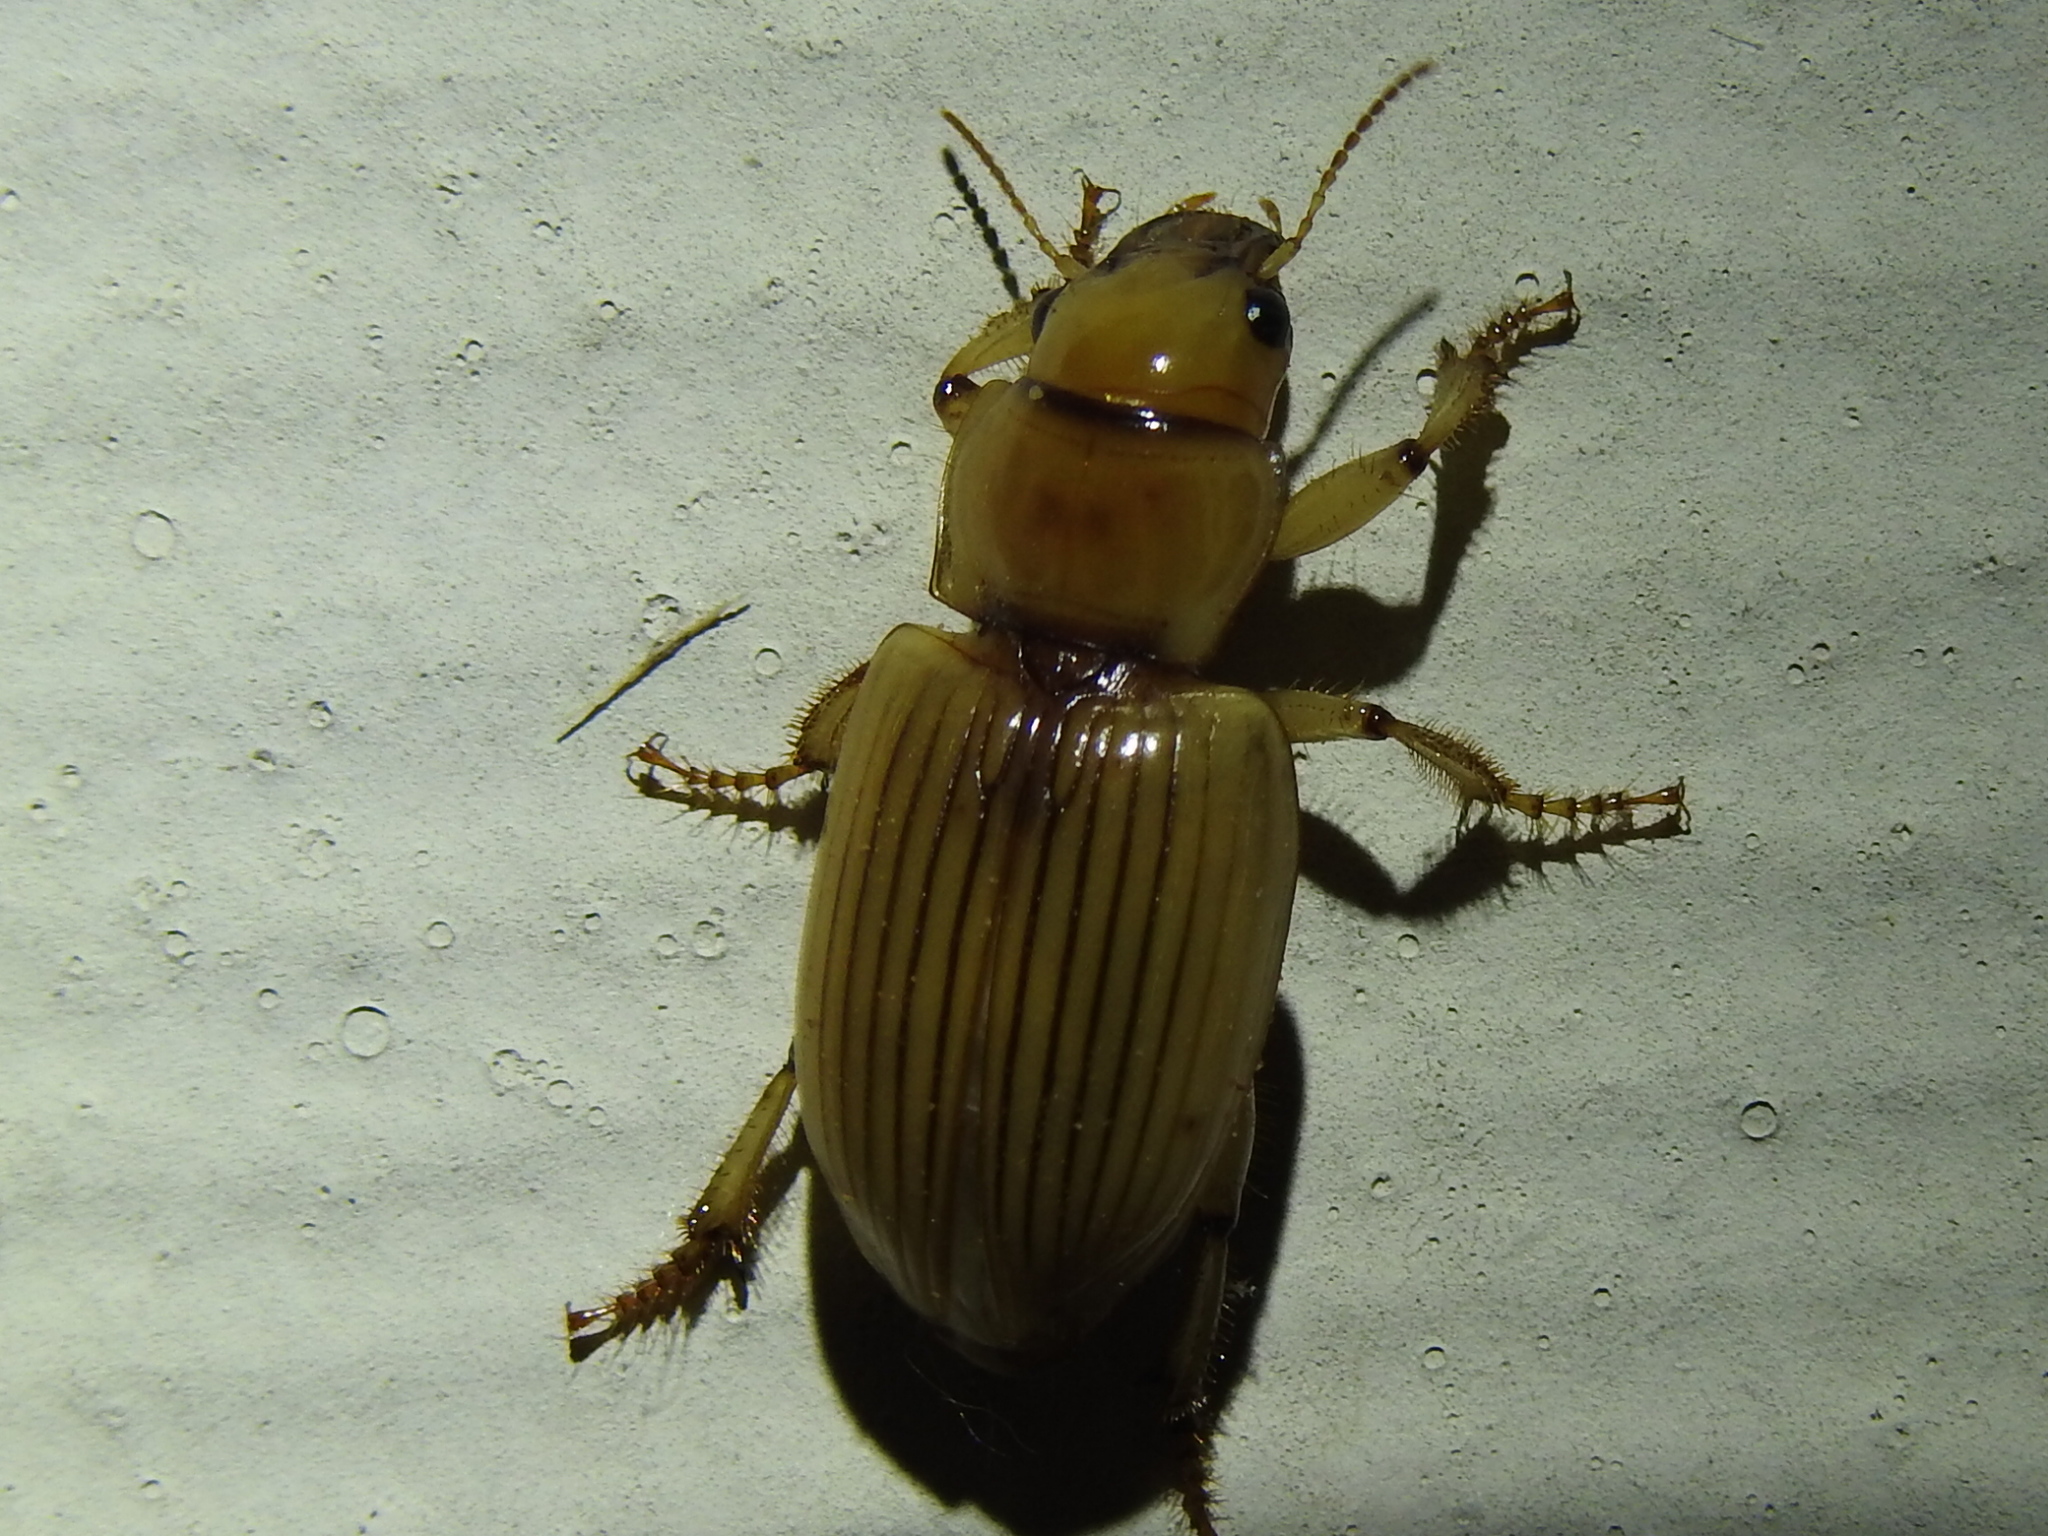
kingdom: Animalia
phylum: Arthropoda
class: Insecta
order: Coleoptera
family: Carabidae
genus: Geopinus
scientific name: Geopinus incrassatus
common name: Homely geopinus
